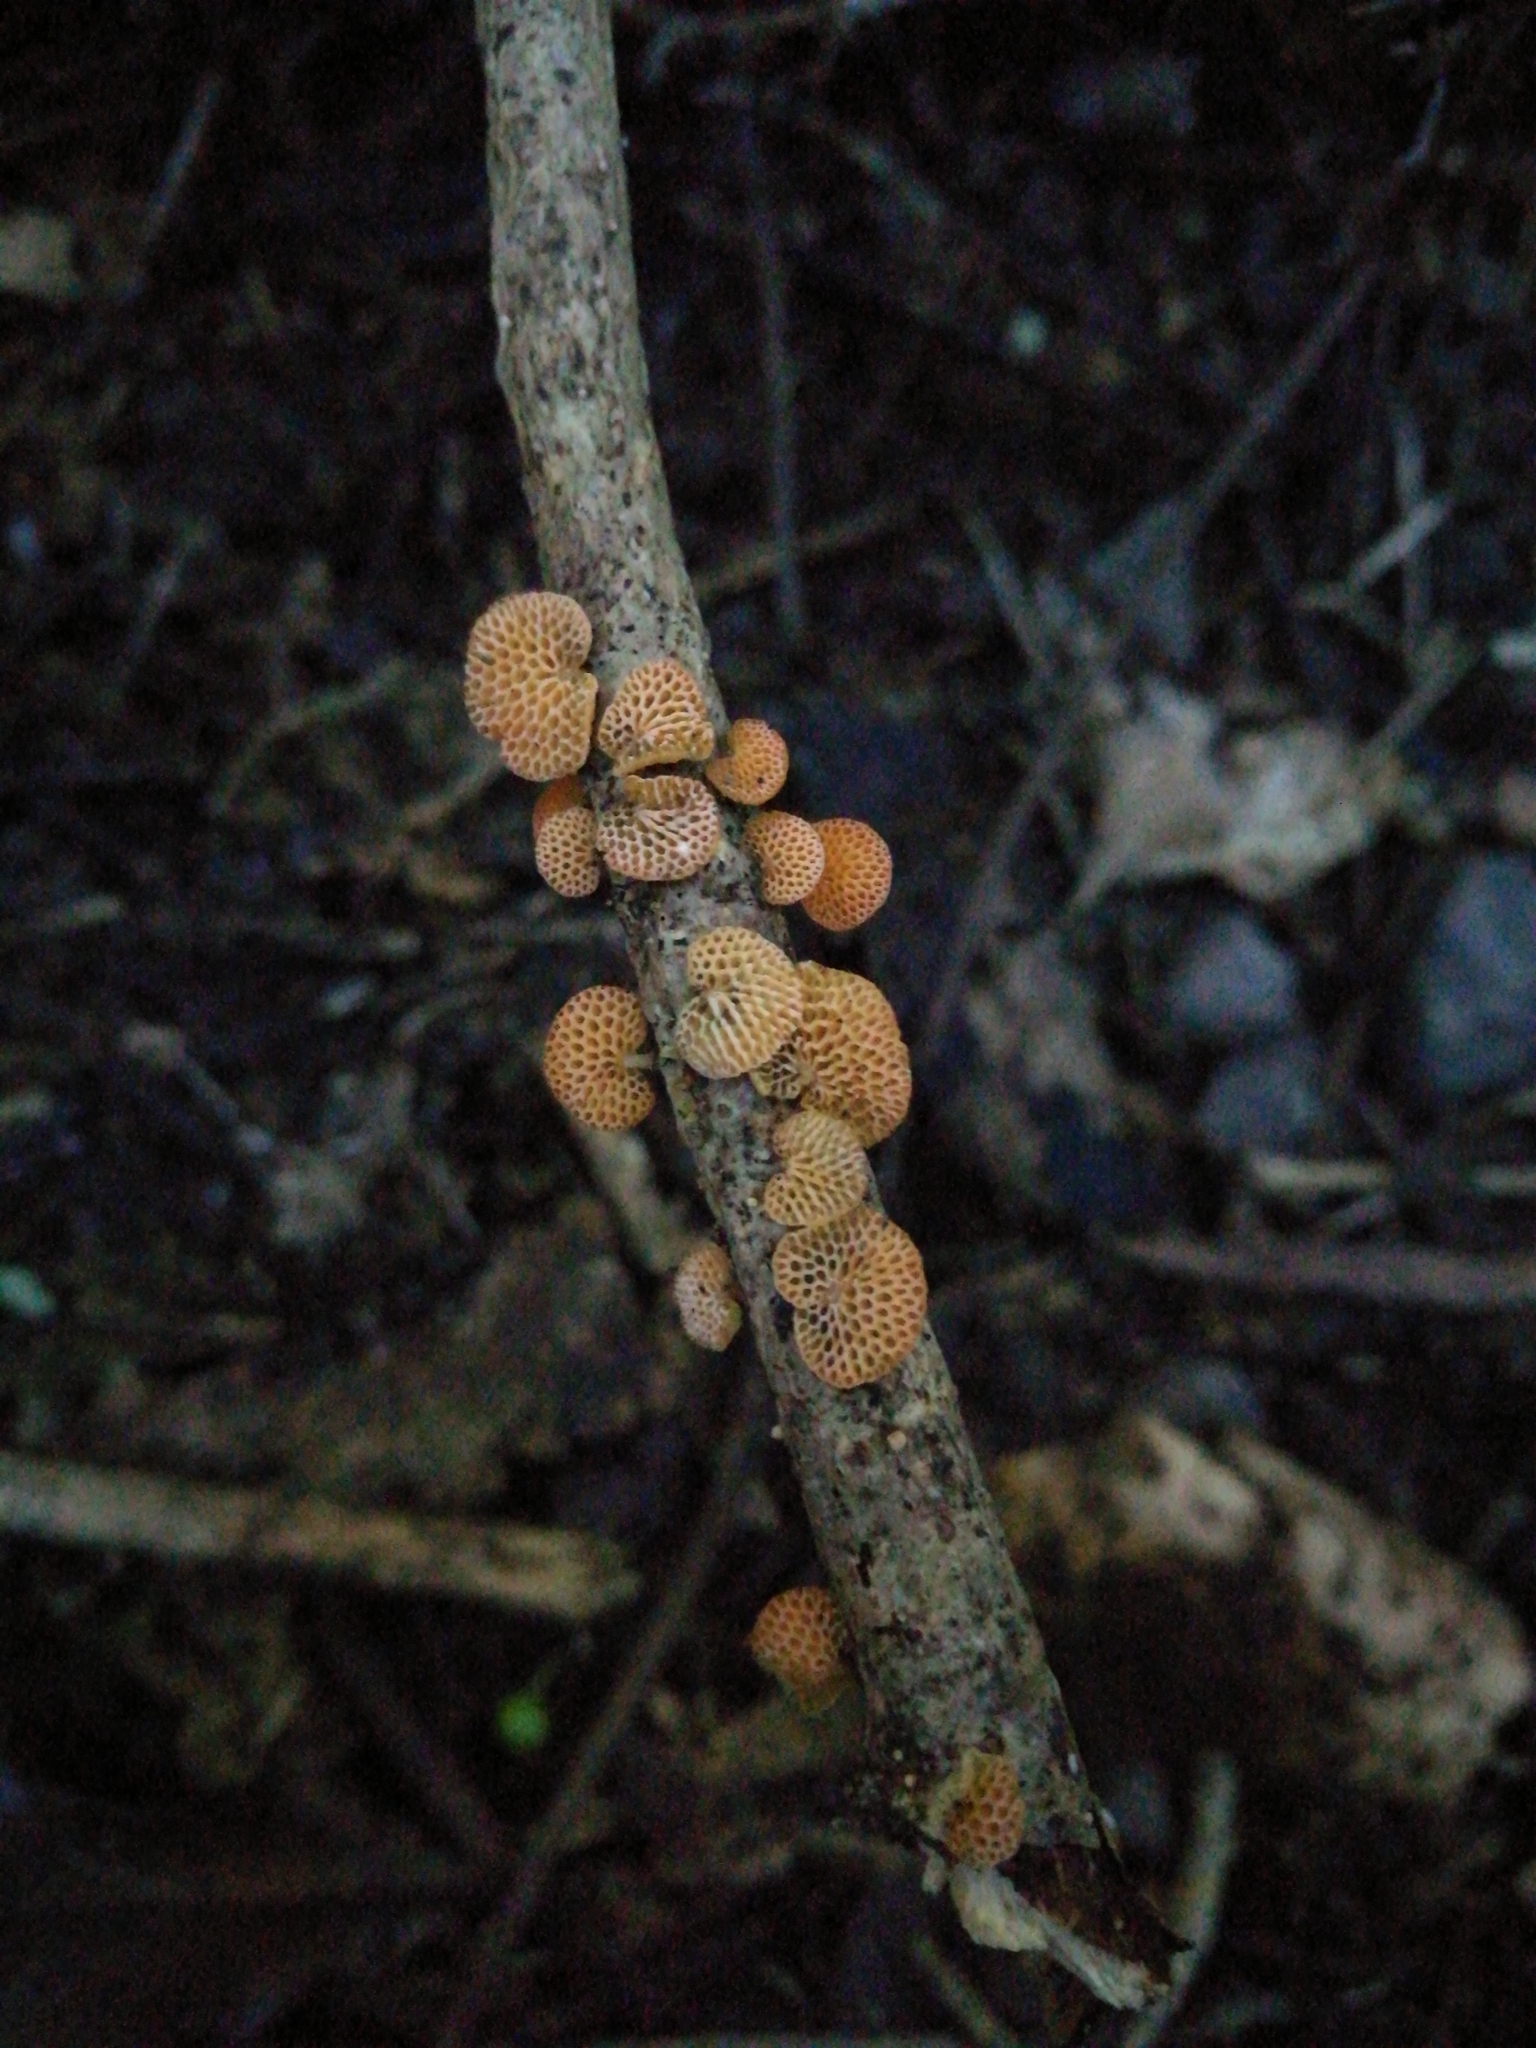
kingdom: Fungi
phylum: Basidiomycota
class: Agaricomycetes
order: Agaricales
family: Mycenaceae
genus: Favolaschia
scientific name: Favolaschia claudopus
